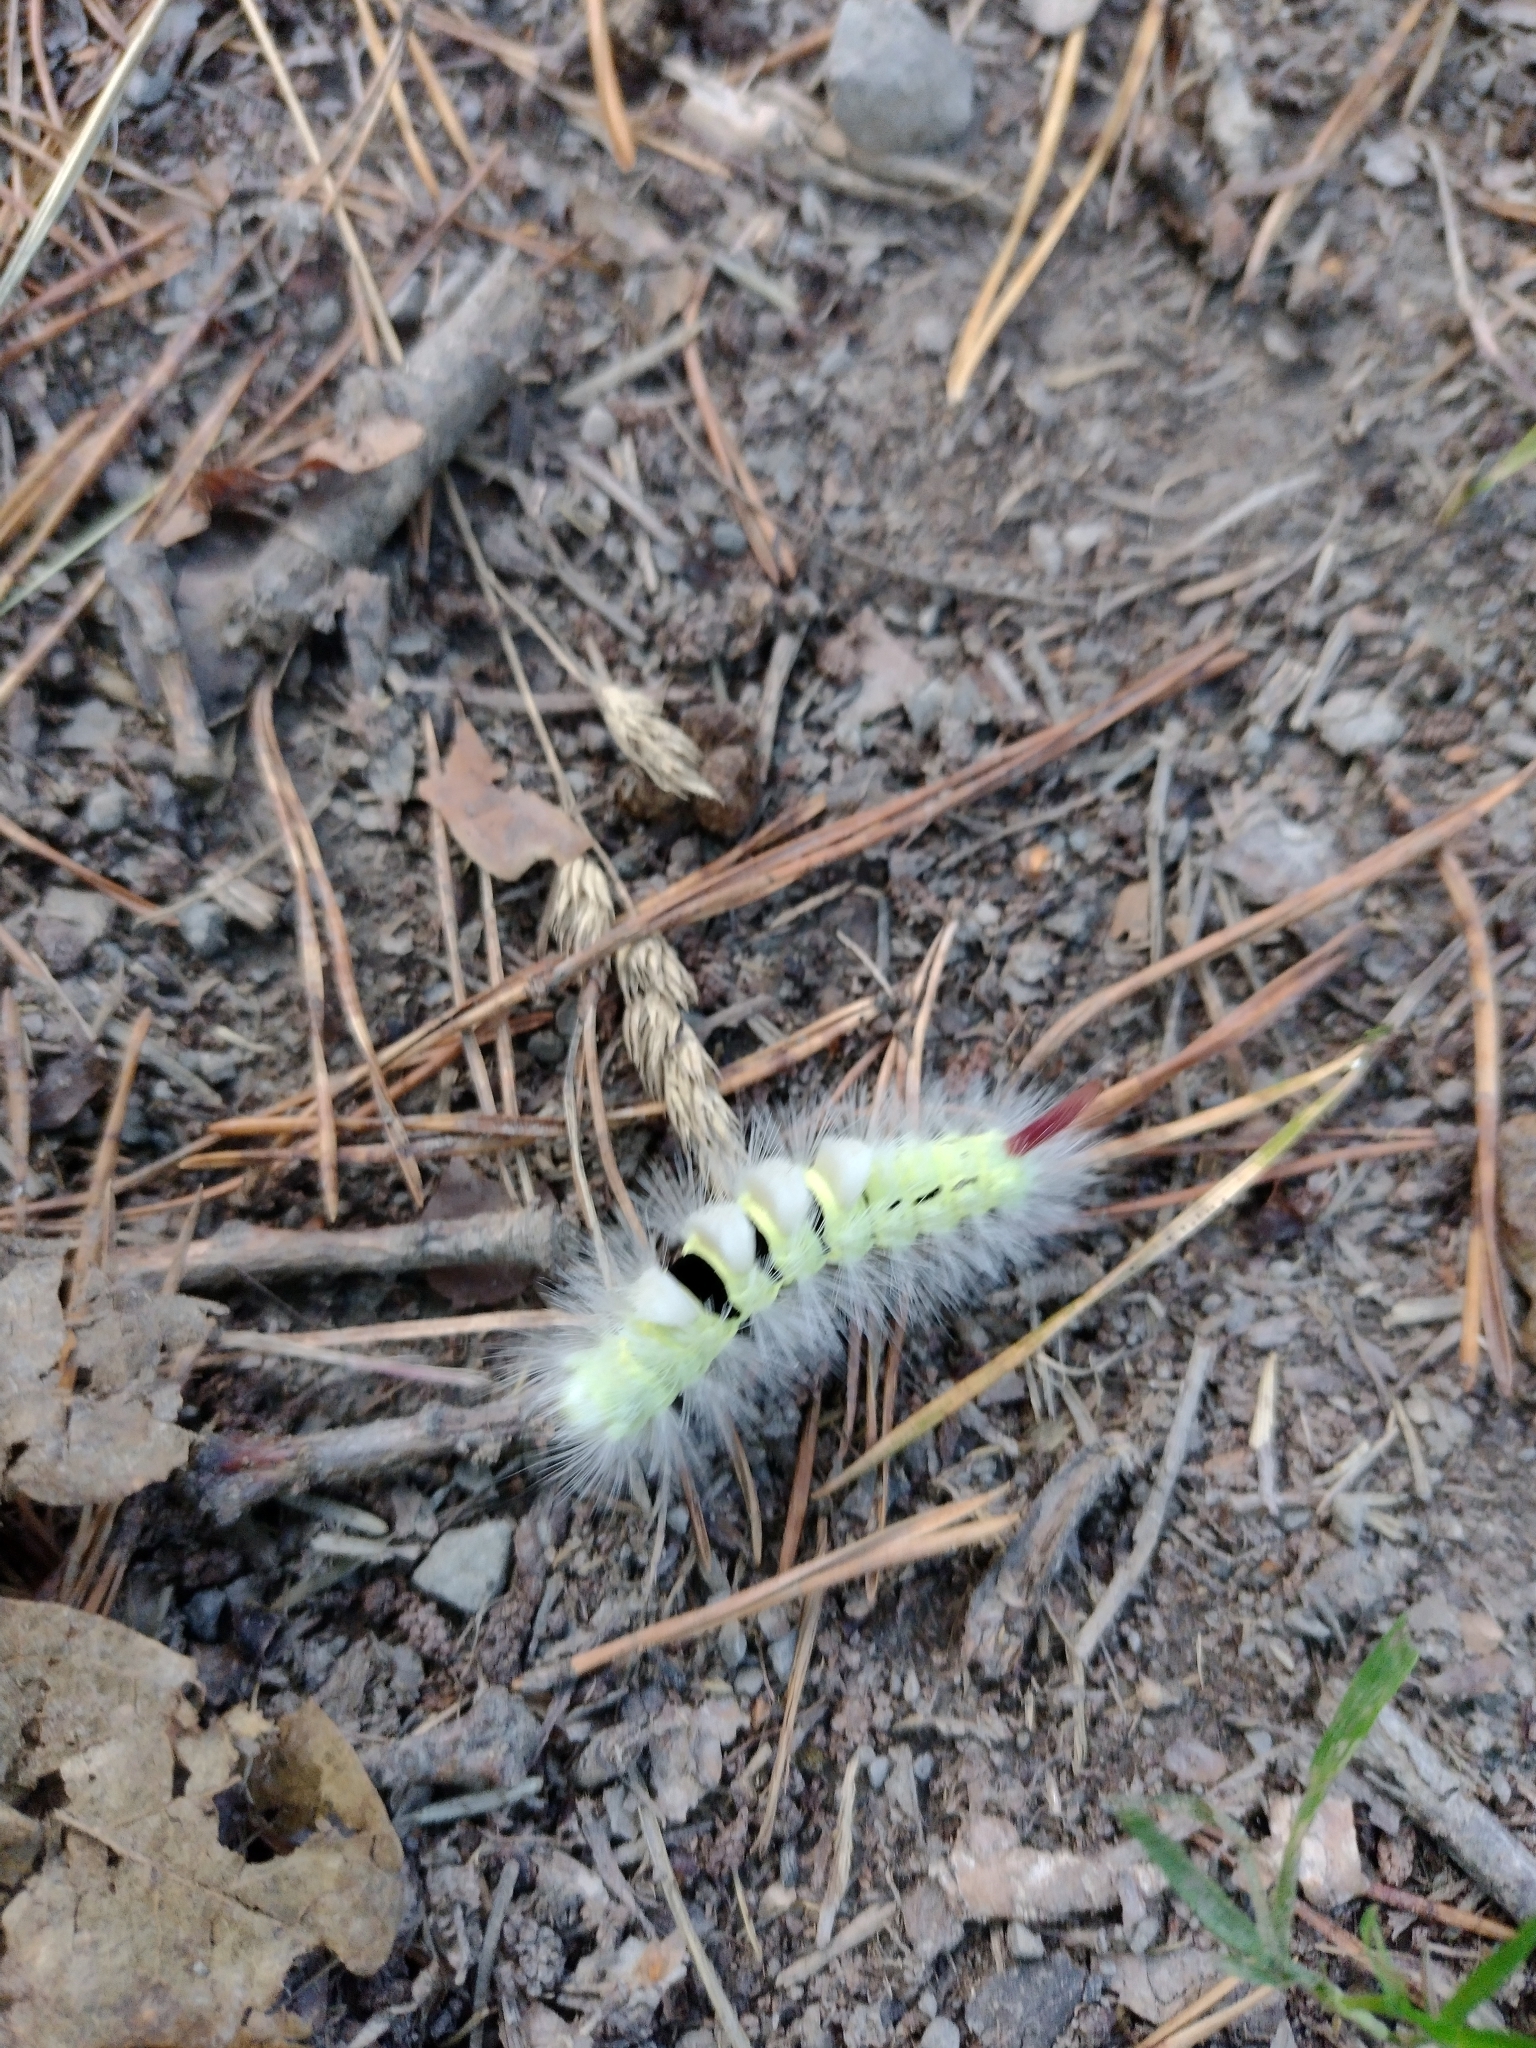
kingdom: Animalia
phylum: Arthropoda
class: Insecta
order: Lepidoptera
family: Erebidae
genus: Calliteara
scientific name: Calliteara pudibunda
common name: Pale tussock
